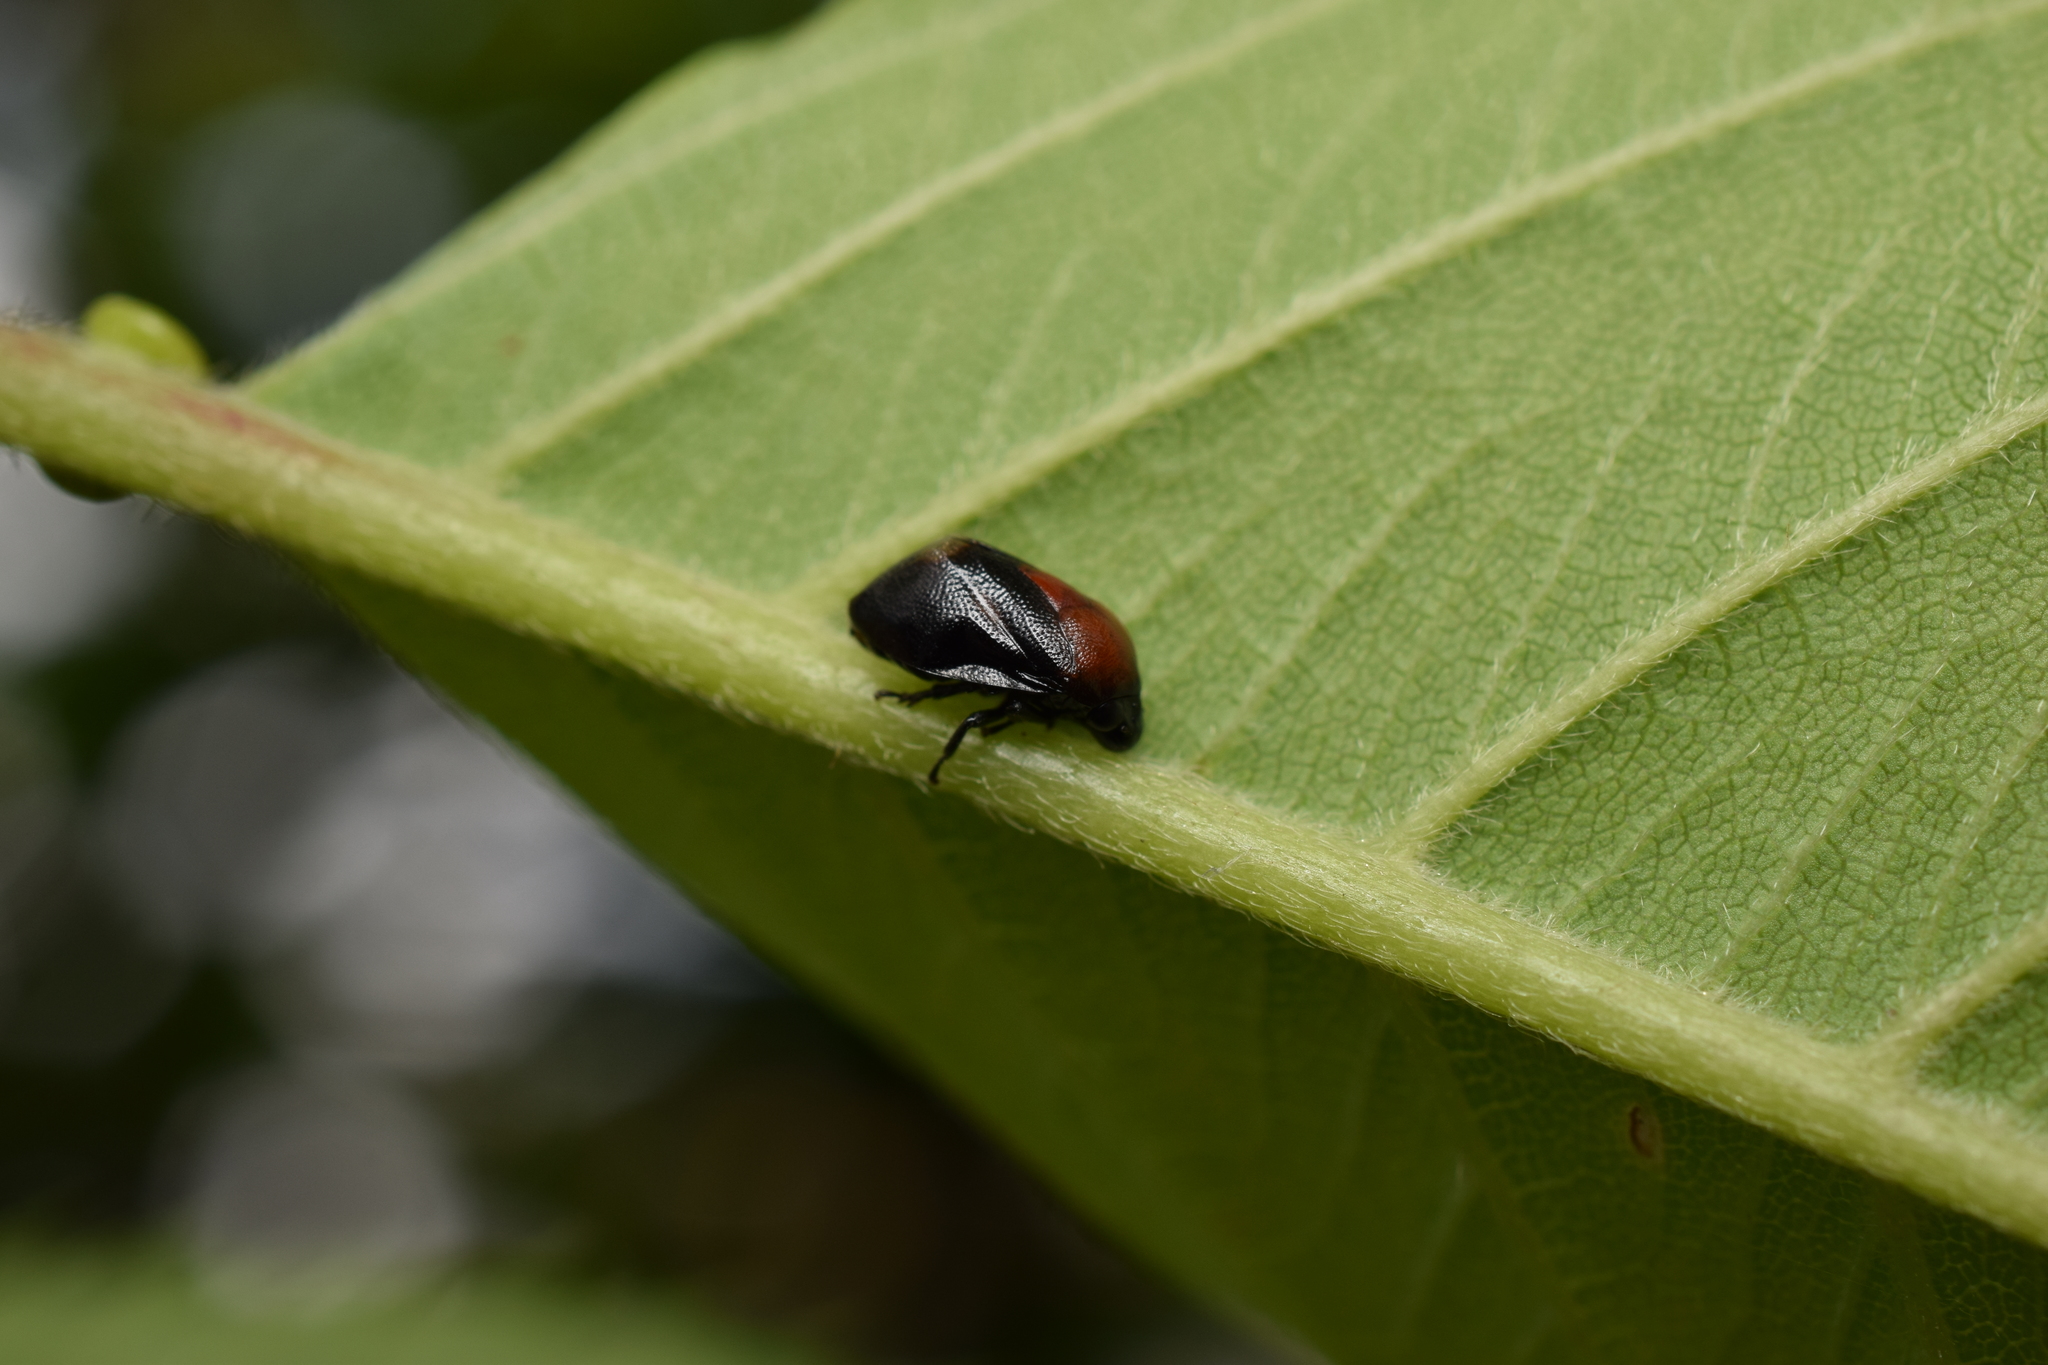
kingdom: Animalia
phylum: Arthropoda
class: Insecta
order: Hemiptera
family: Machaerotidae
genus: Hindoloides
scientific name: Hindoloides bipunctata
